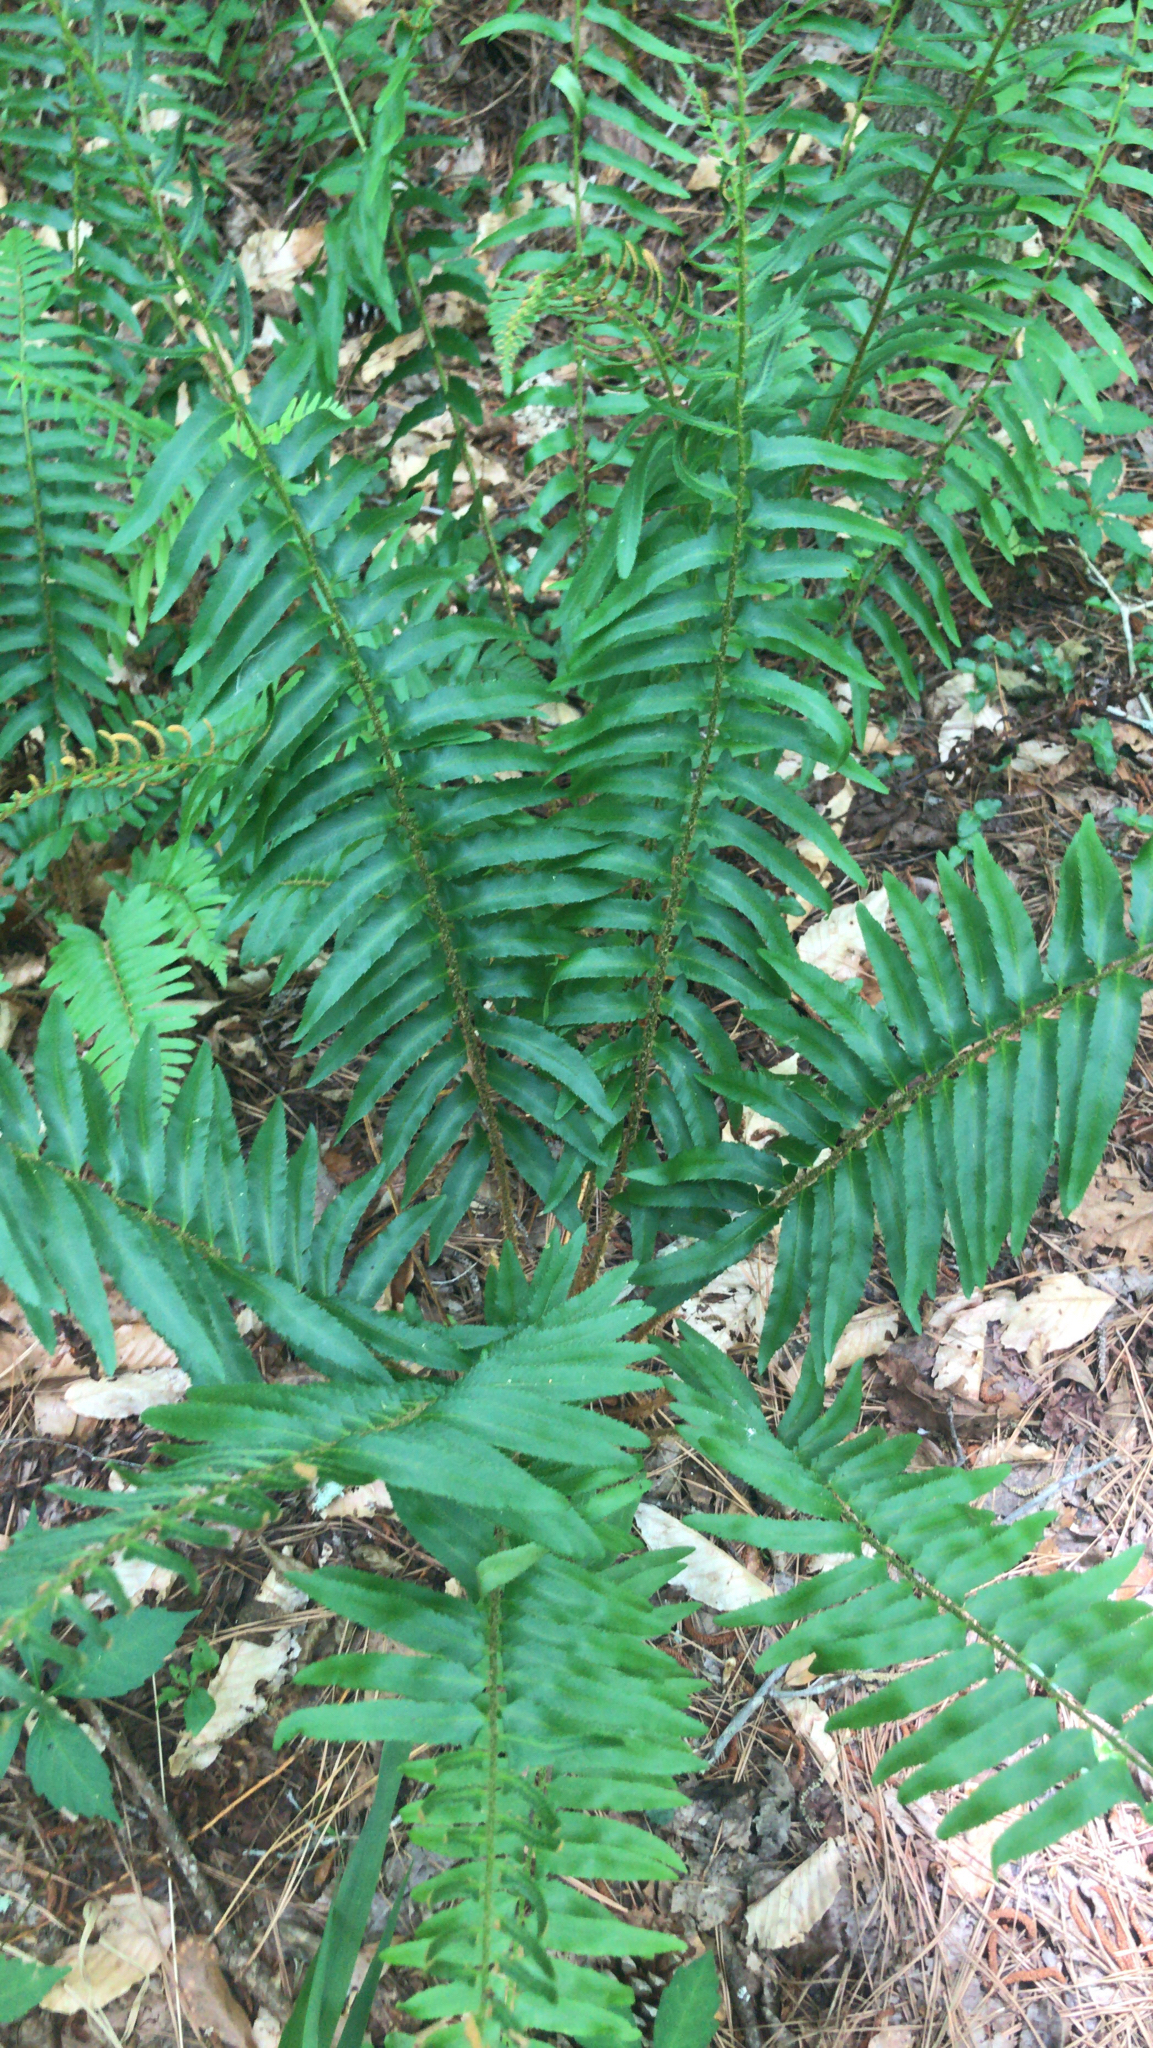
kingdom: Plantae
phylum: Tracheophyta
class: Polypodiopsida
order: Polypodiales
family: Dryopteridaceae
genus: Polystichum
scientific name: Polystichum acrostichoides
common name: Christmas fern
